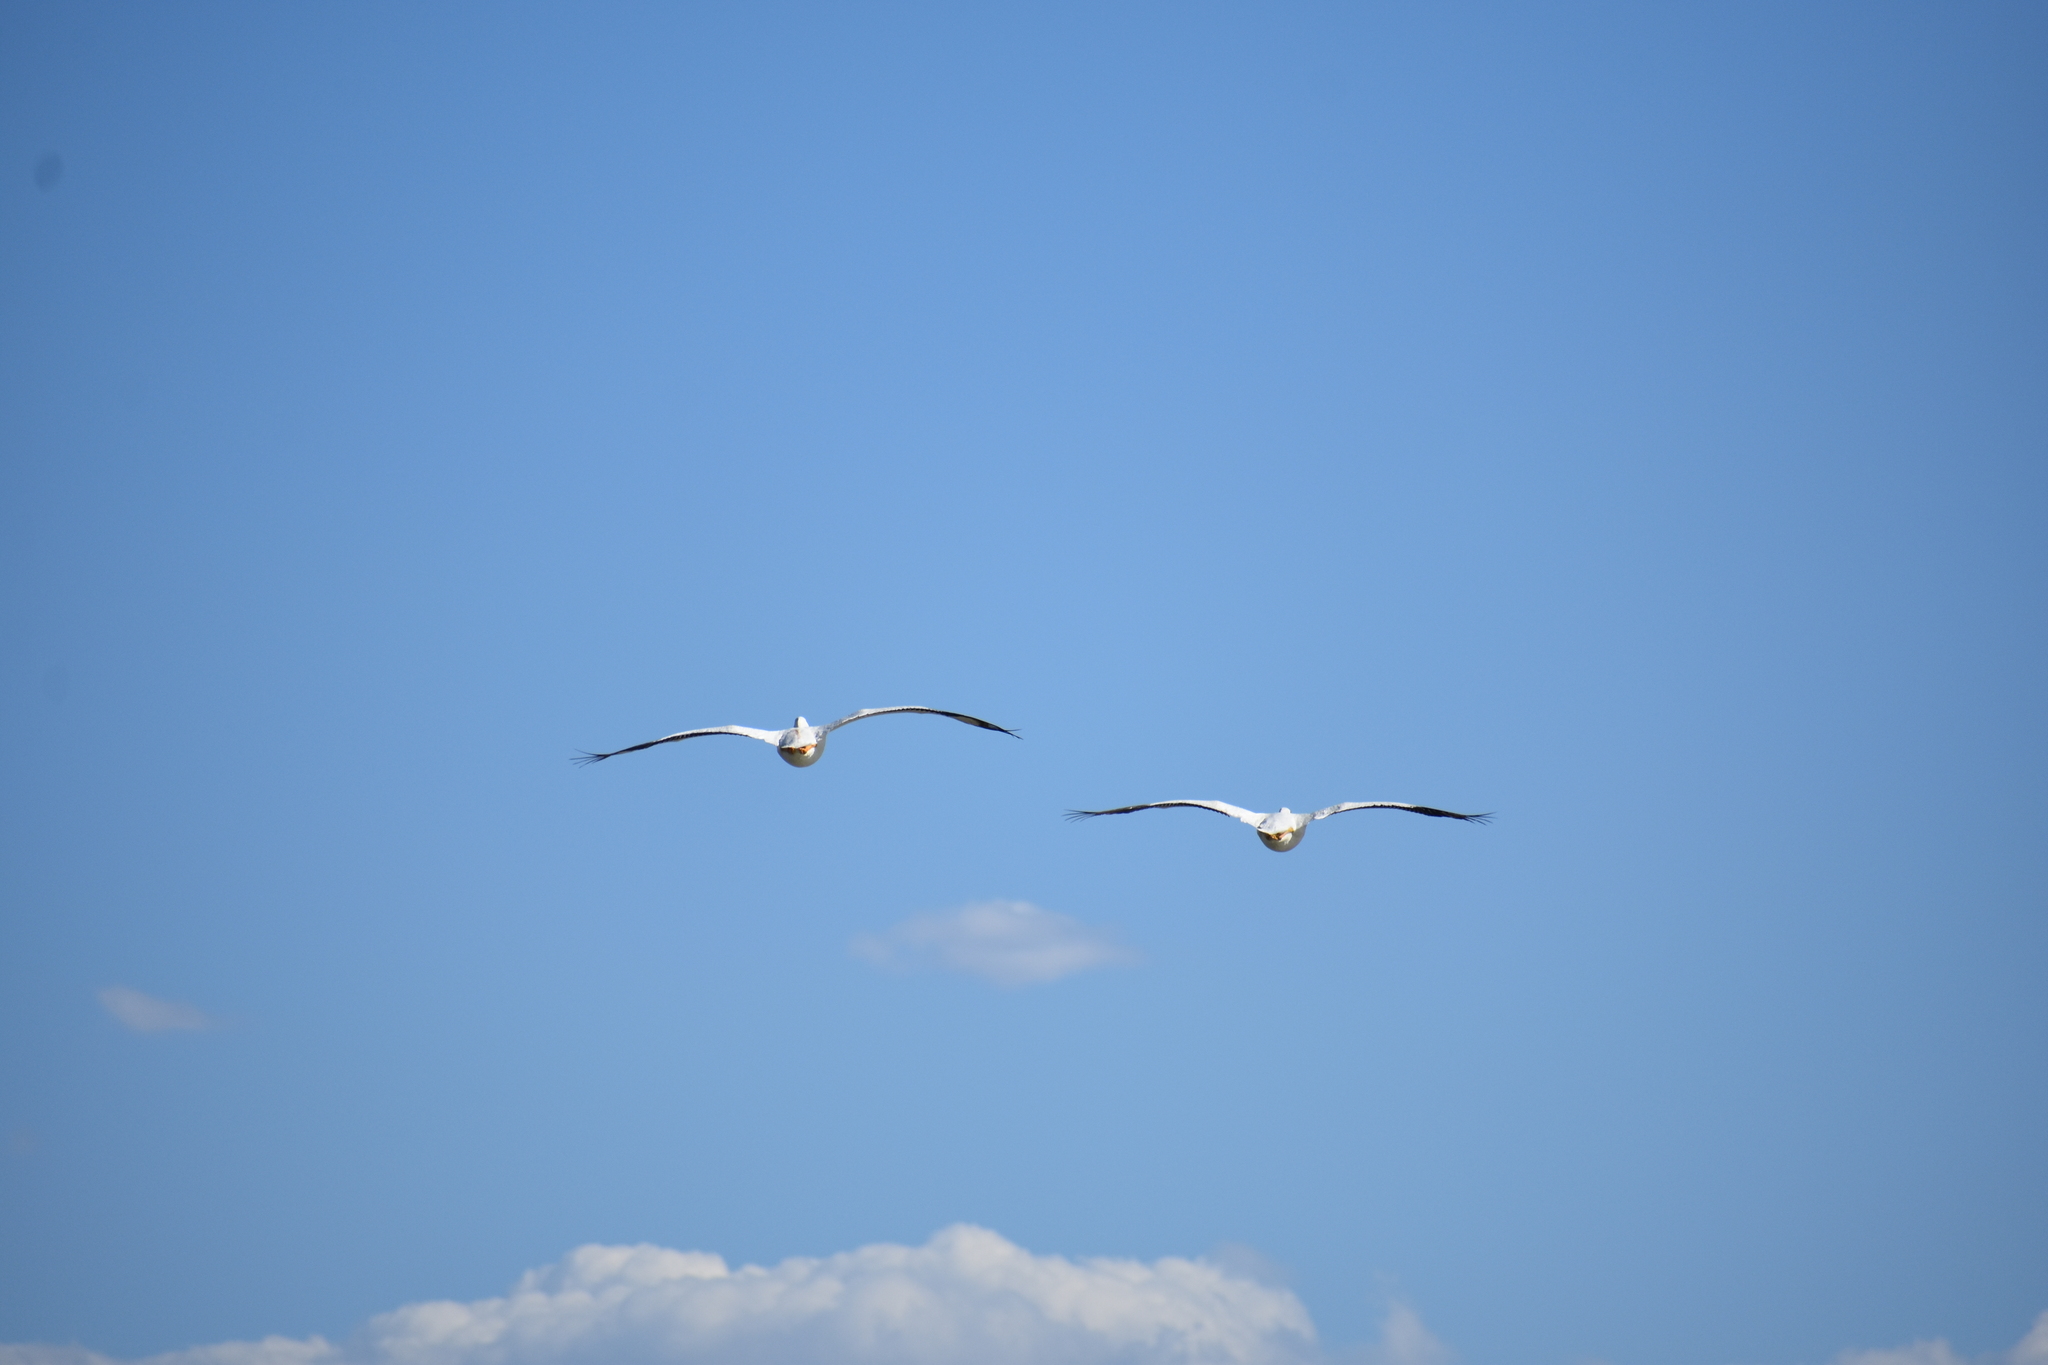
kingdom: Animalia
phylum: Chordata
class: Aves
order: Pelecaniformes
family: Pelecanidae
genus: Pelecanus
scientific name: Pelecanus erythrorhynchos
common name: American white pelican
